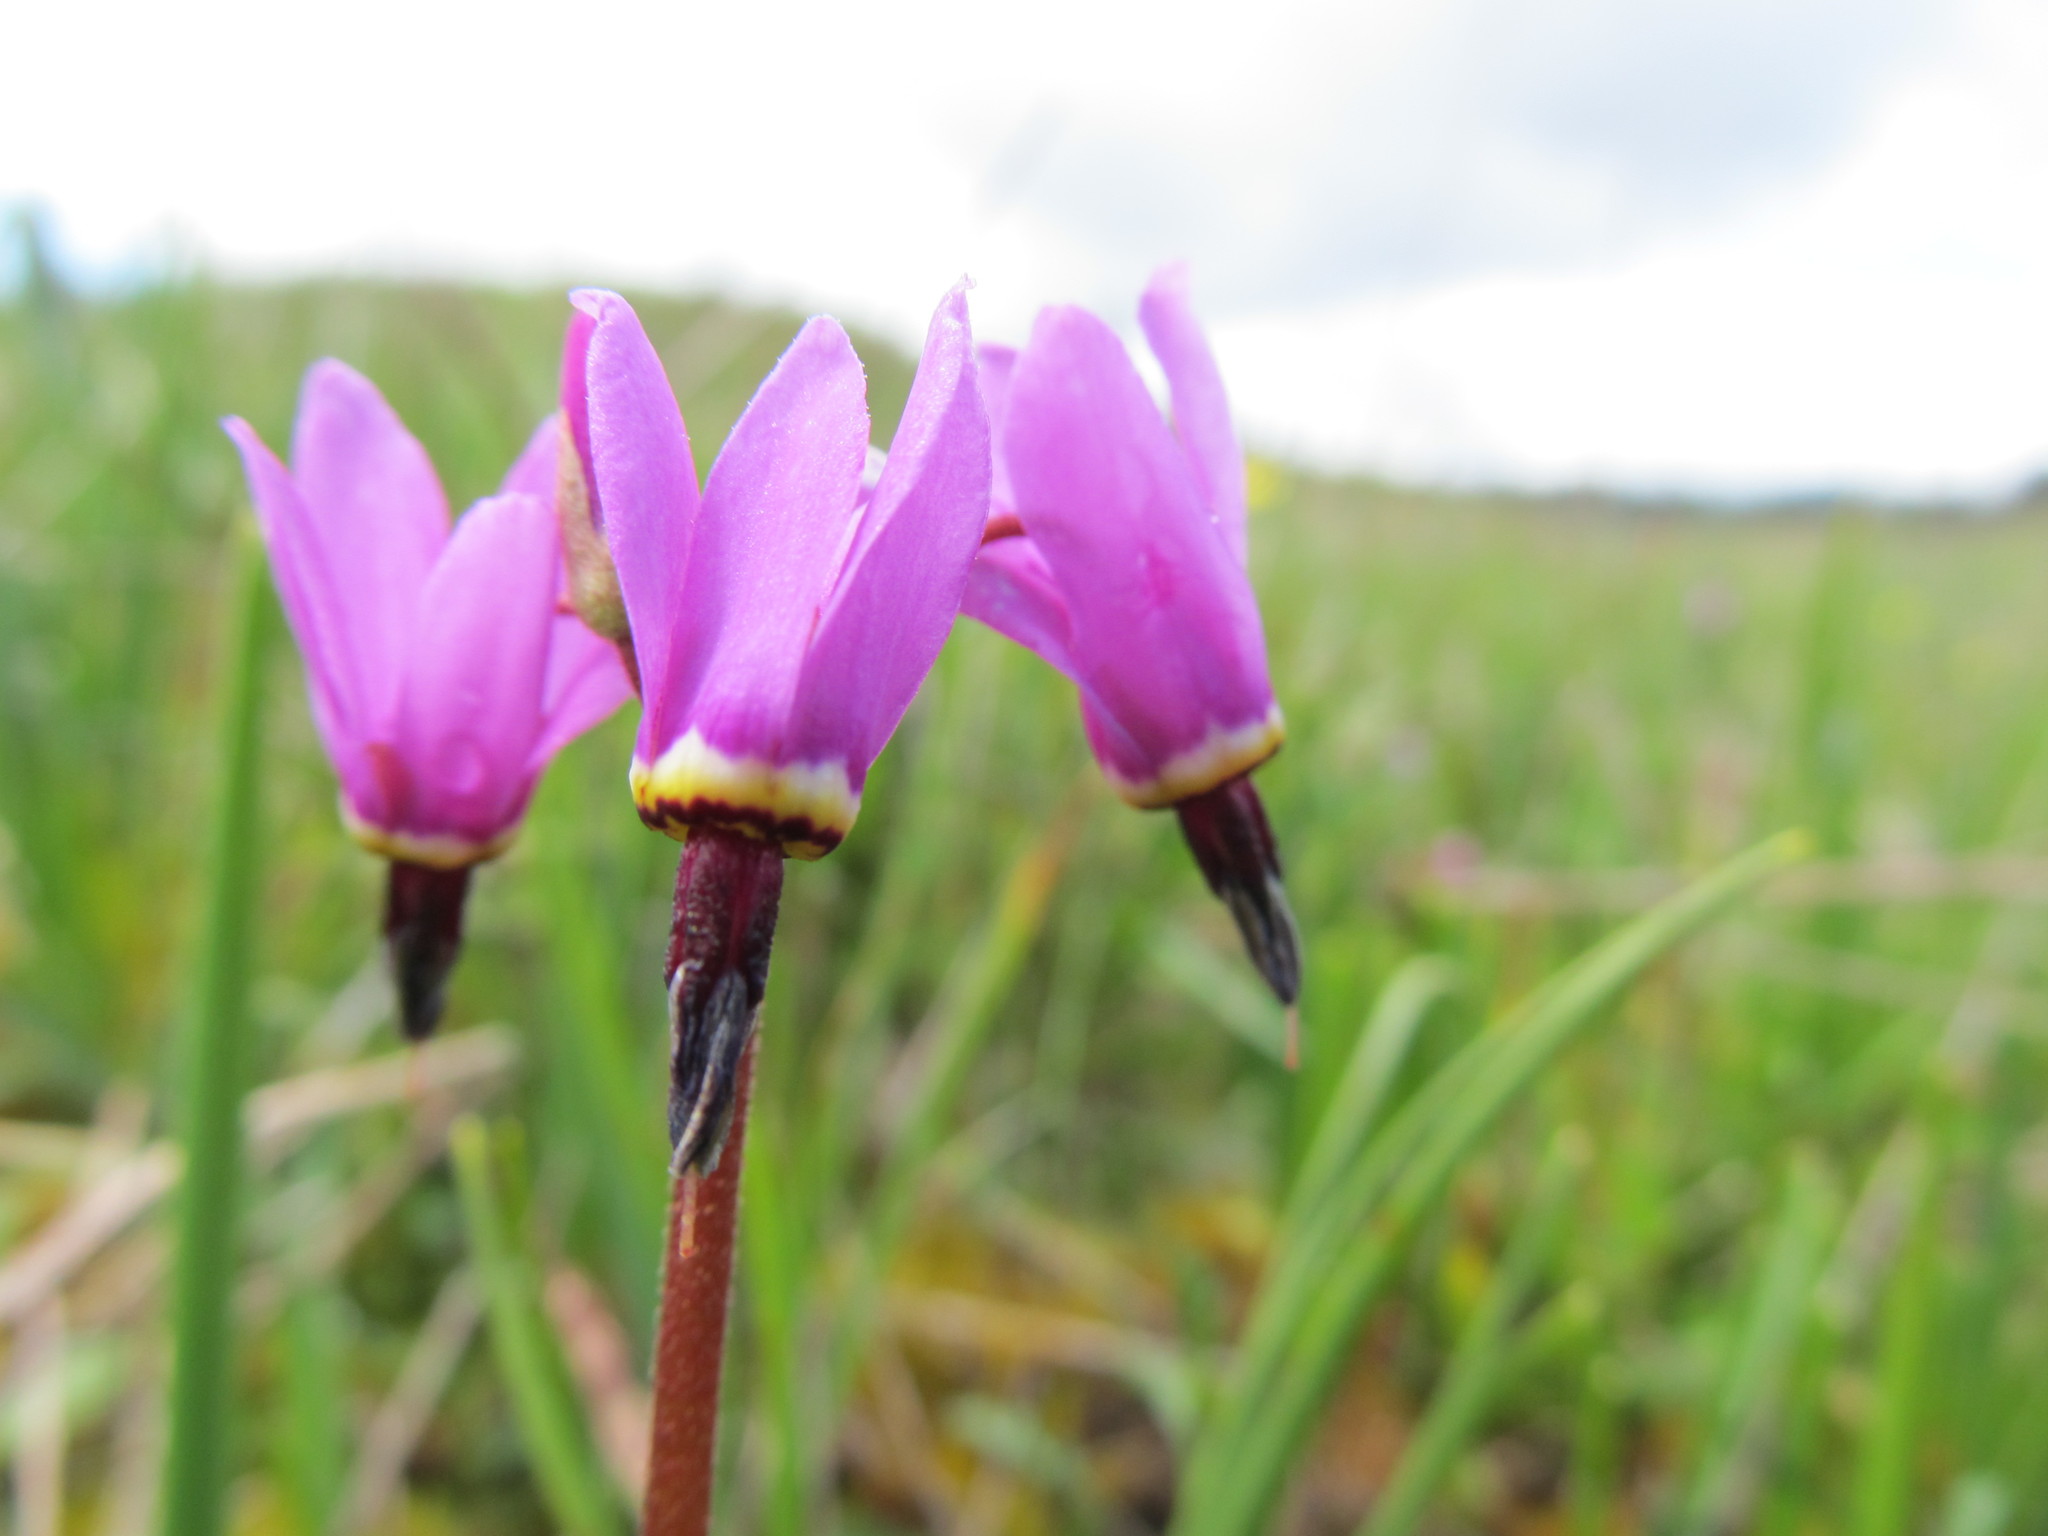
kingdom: Plantae
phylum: Tracheophyta
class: Magnoliopsida
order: Ericales
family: Primulaceae
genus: Dodecatheon
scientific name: Dodecatheon hendersonii
